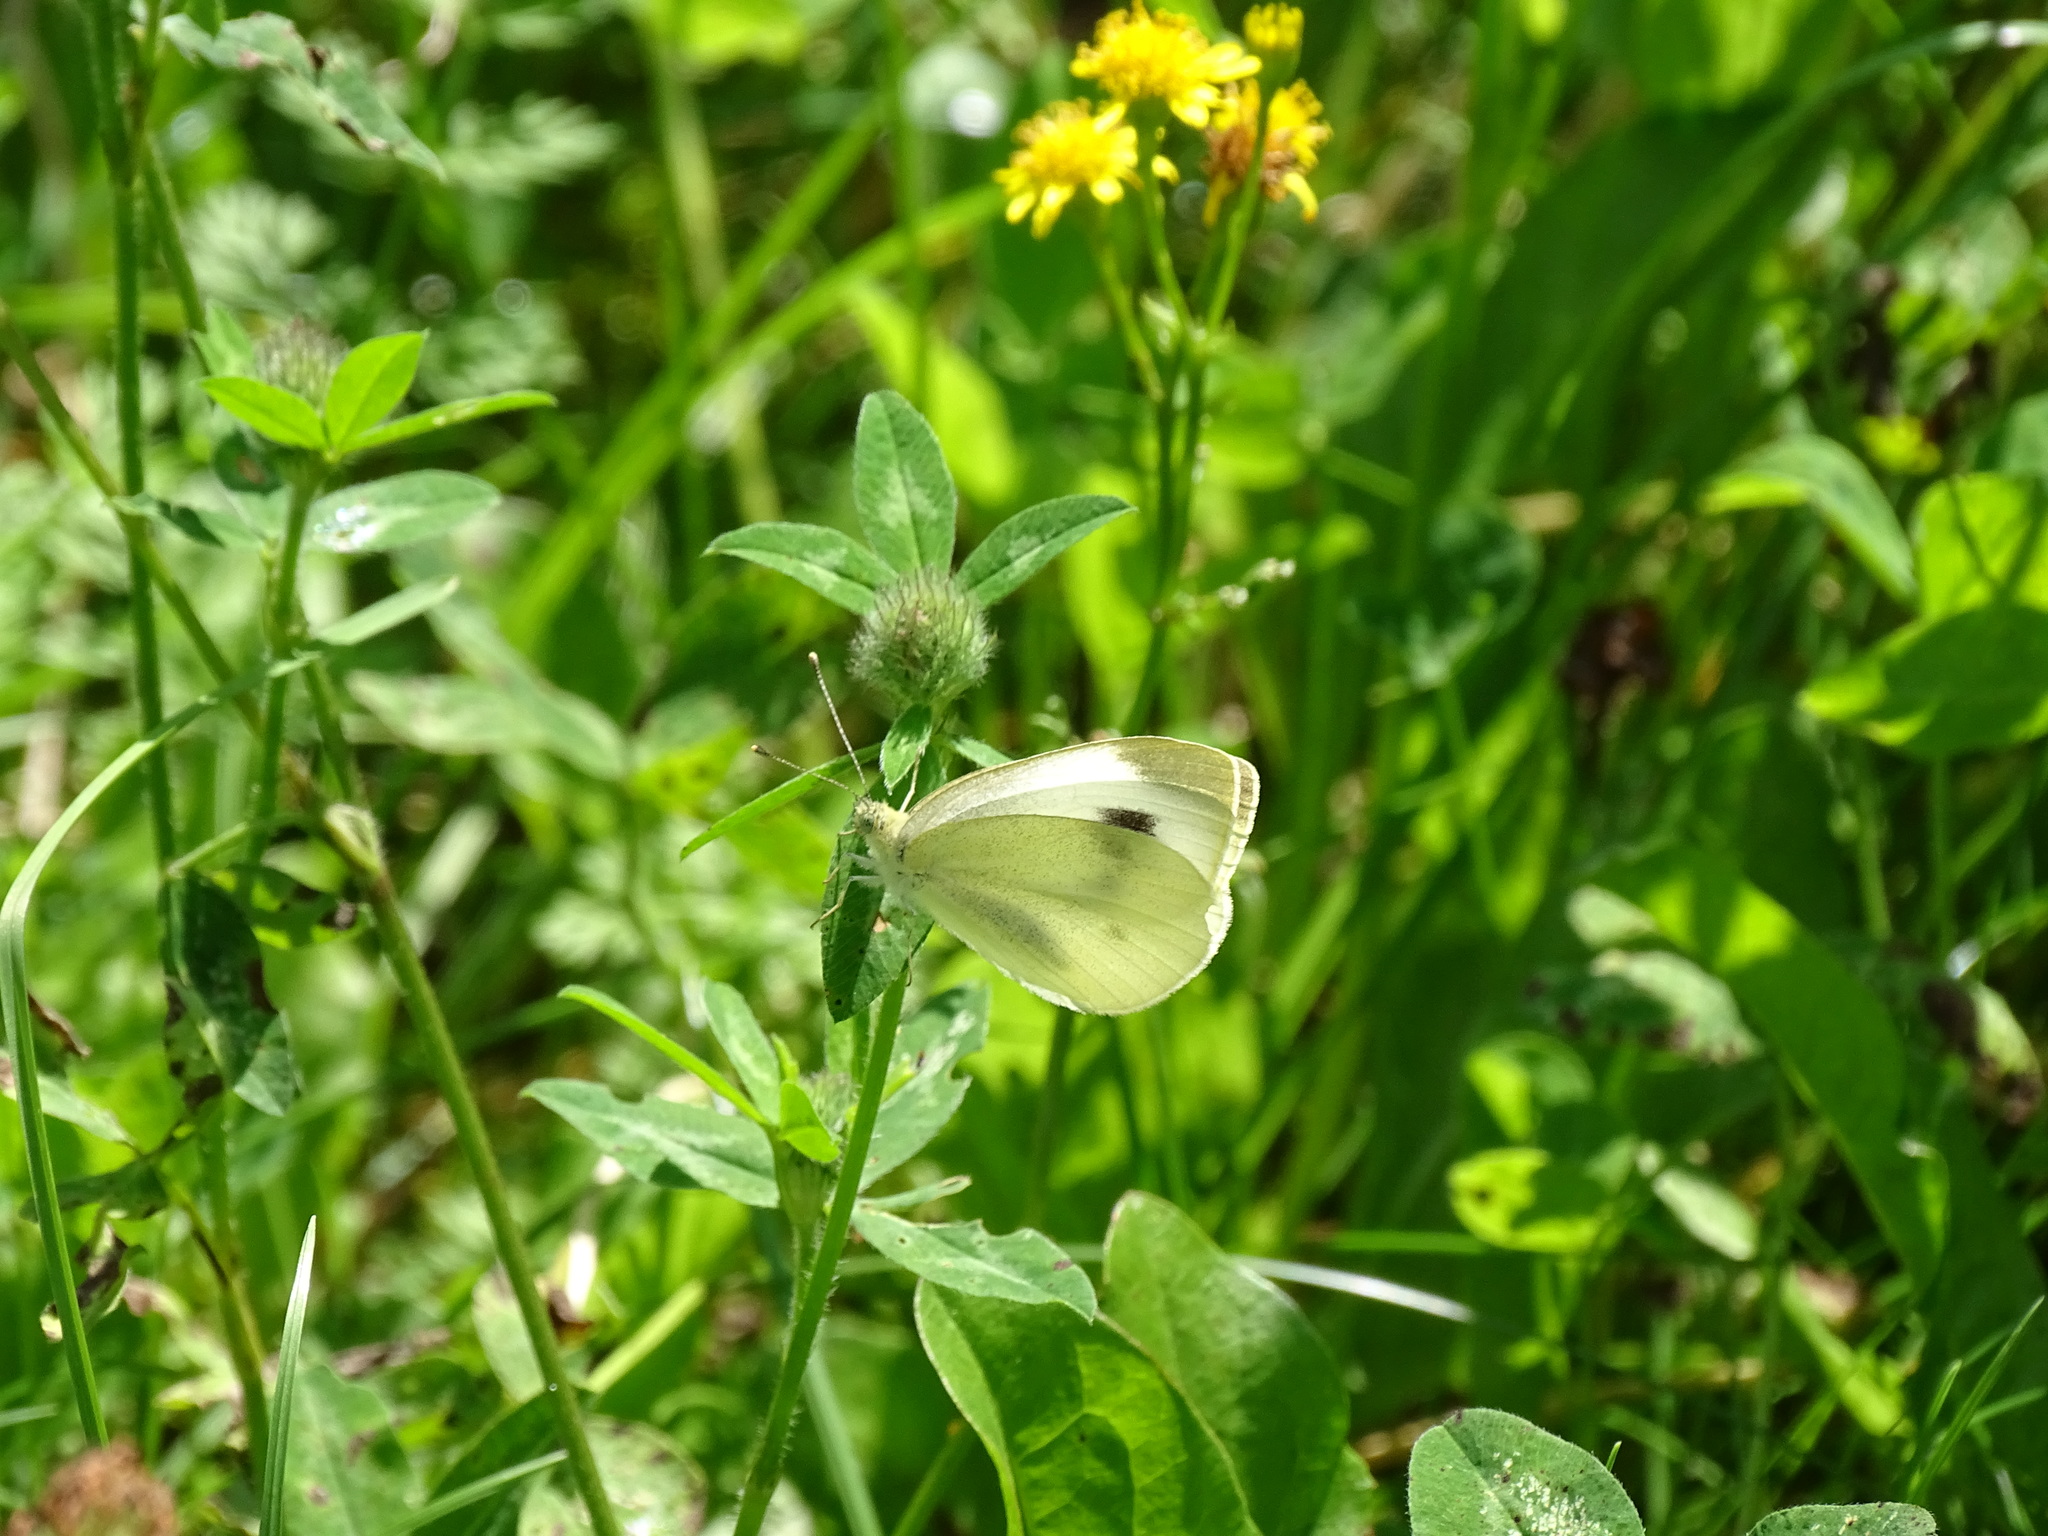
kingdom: Animalia
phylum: Arthropoda
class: Insecta
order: Lepidoptera
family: Pieridae
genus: Pieris
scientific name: Pieris mannii
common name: Southern small white
